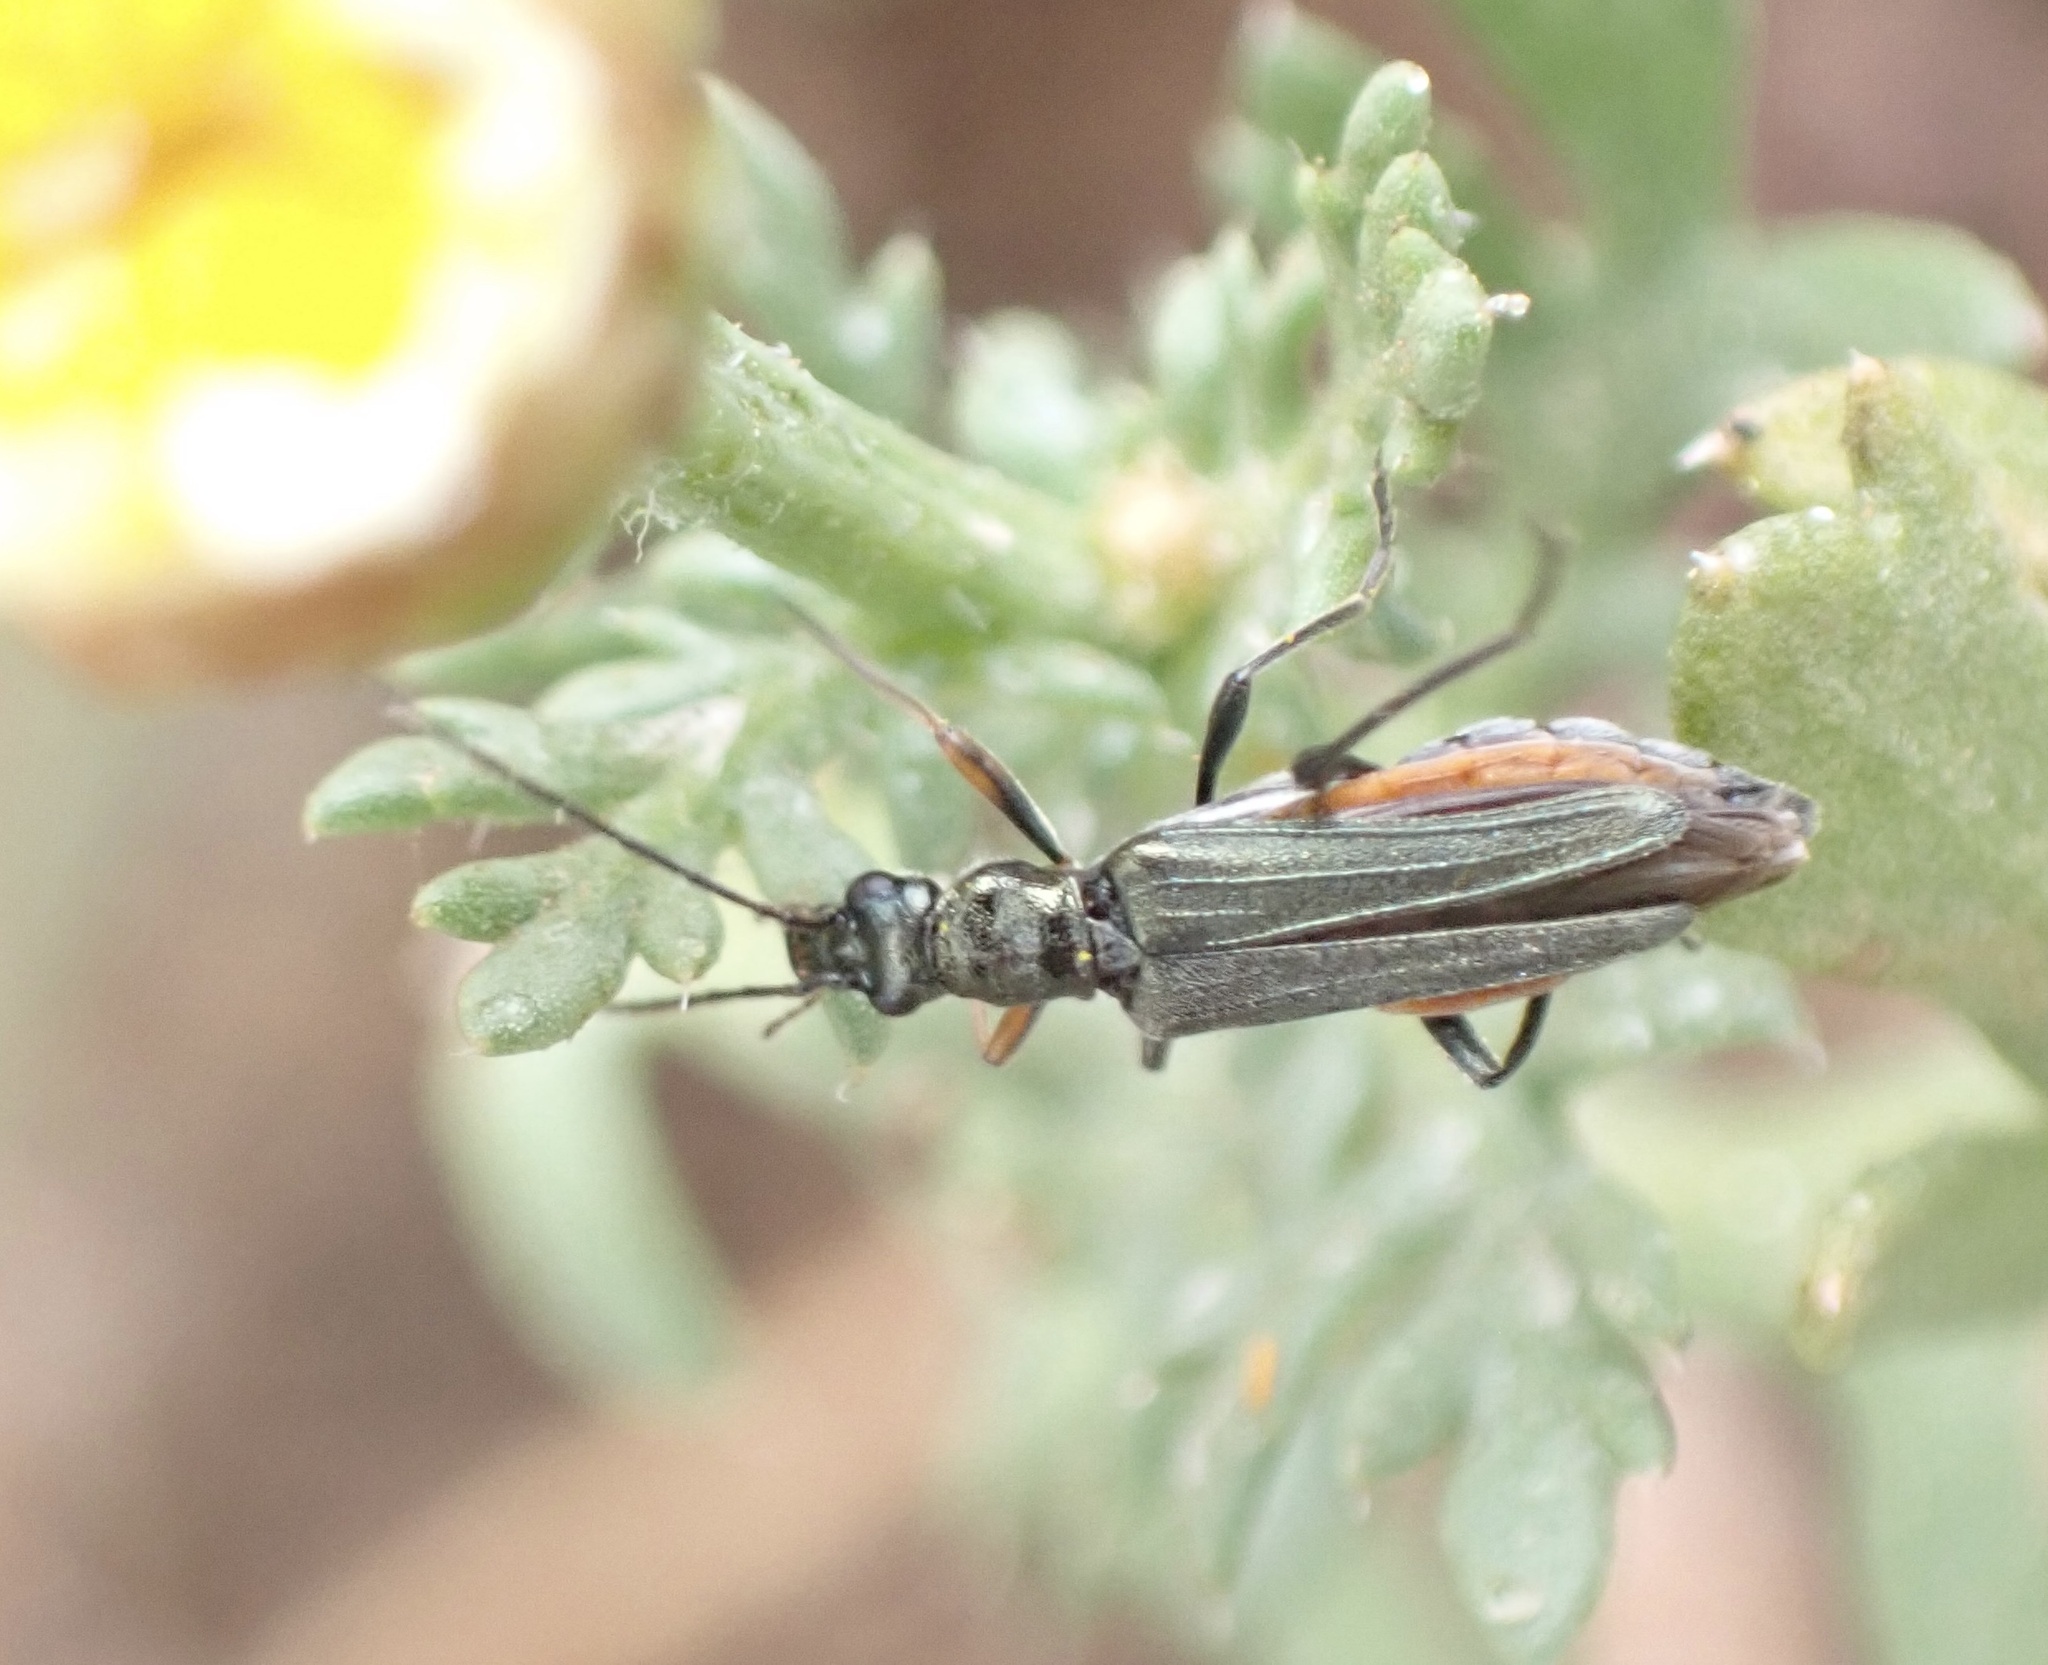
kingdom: Animalia
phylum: Arthropoda
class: Insecta
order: Coleoptera
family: Oedemeridae
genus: Oedemera
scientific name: Oedemera cretica
